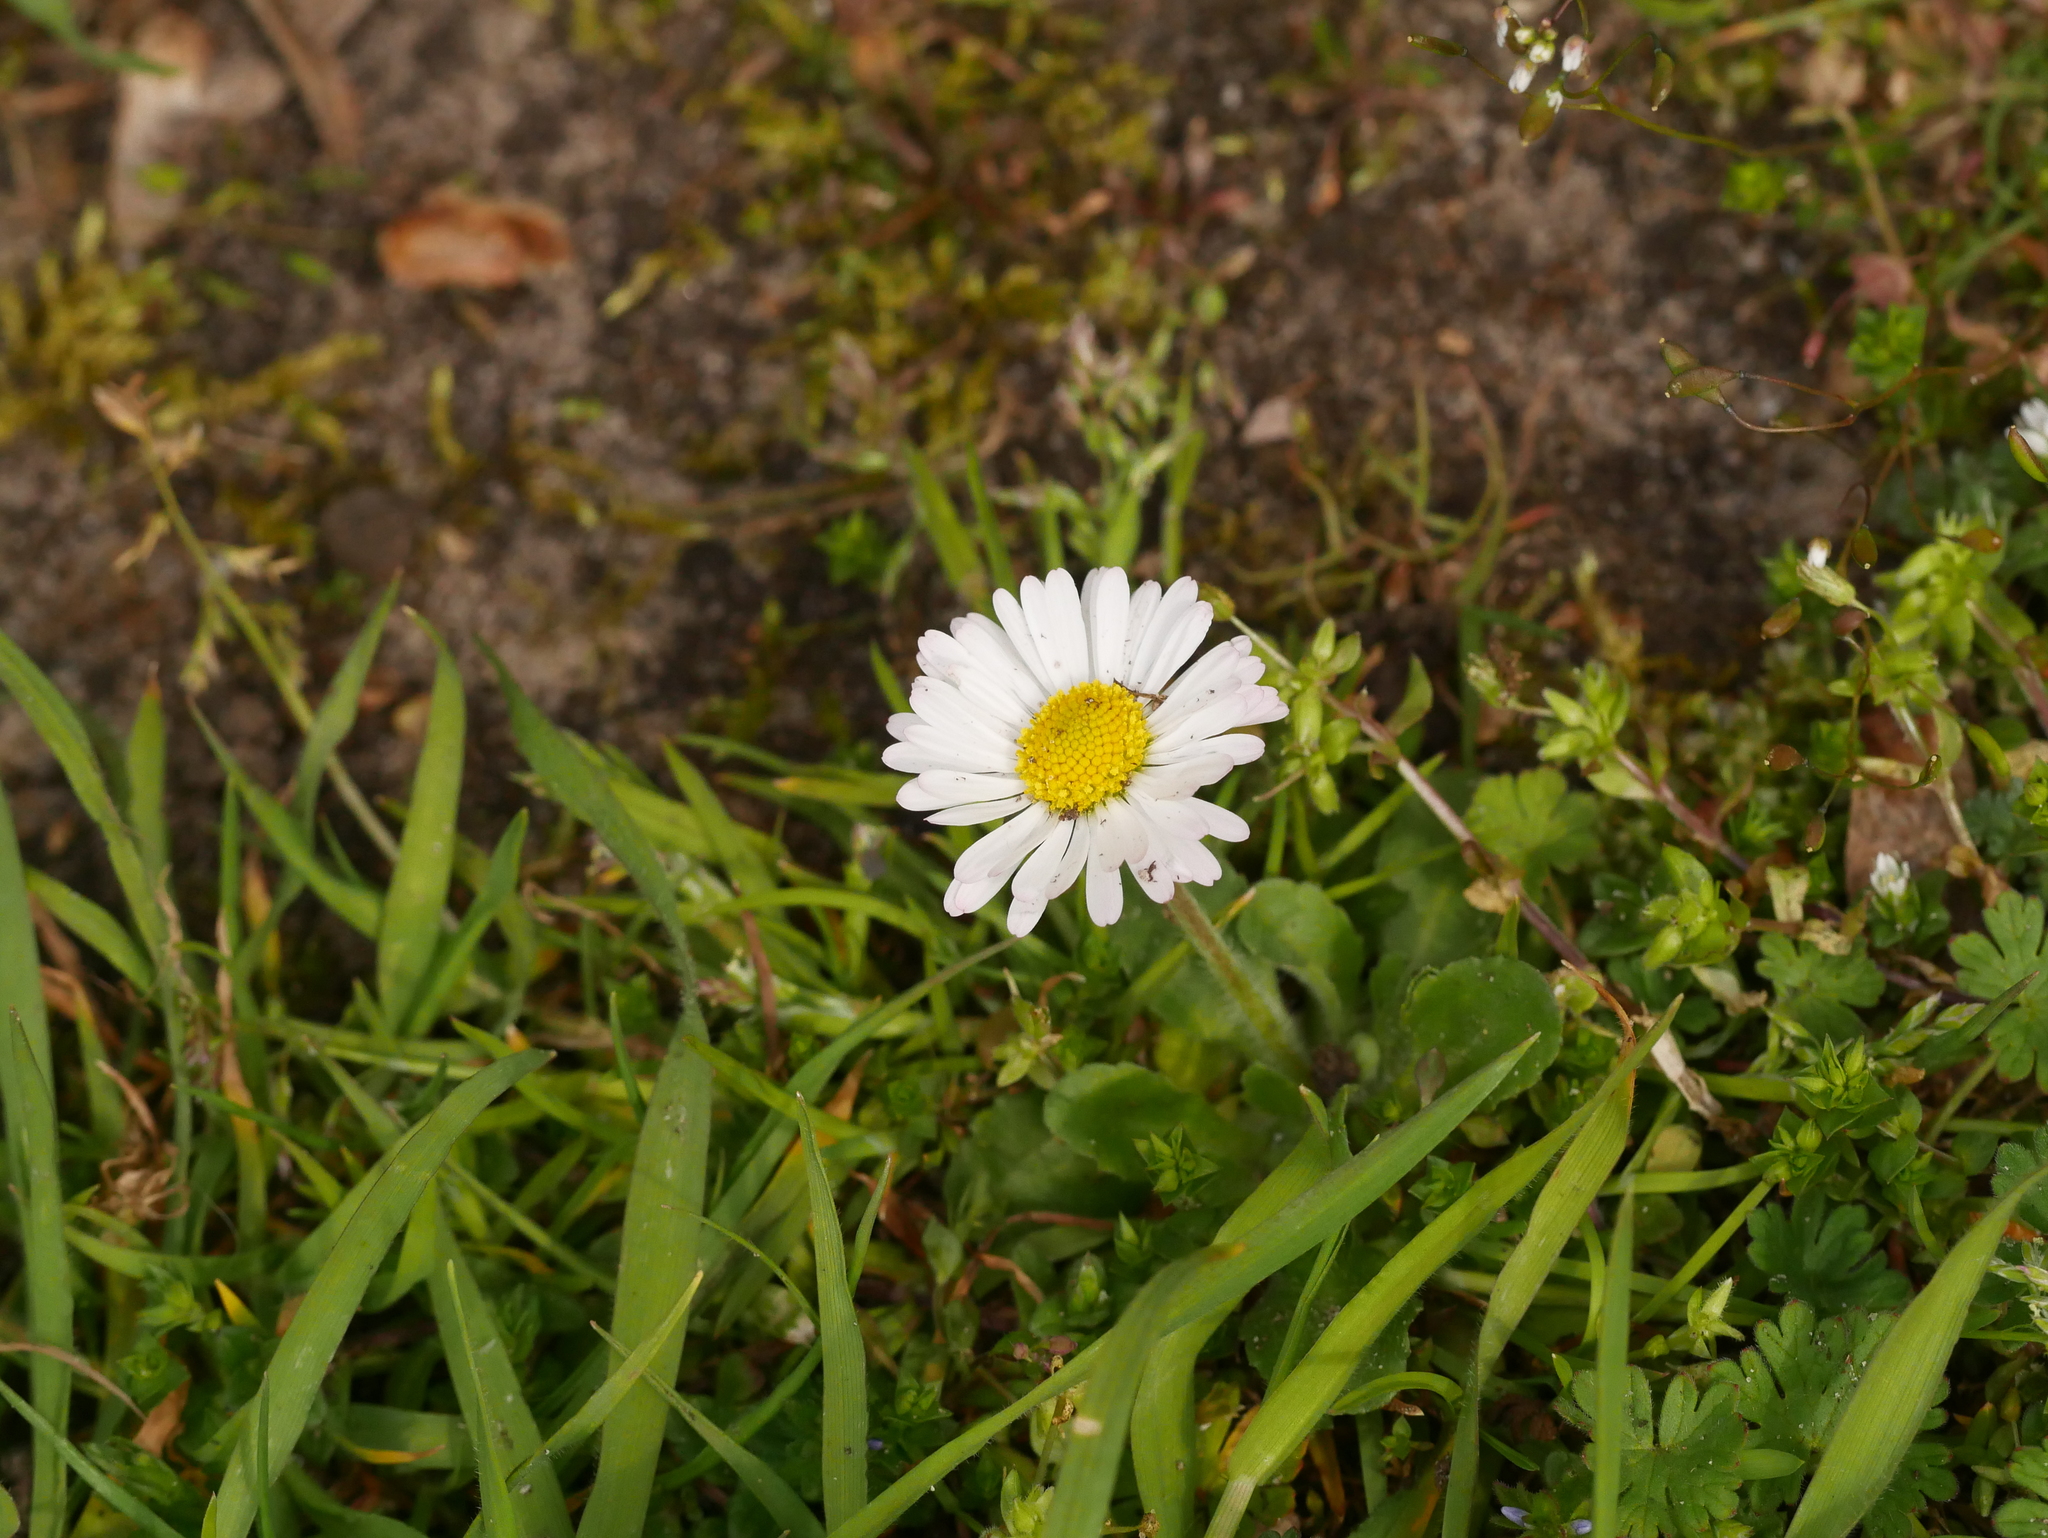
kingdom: Plantae
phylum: Tracheophyta
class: Magnoliopsida
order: Asterales
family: Asteraceae
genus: Bellis
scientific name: Bellis perennis
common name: Lawndaisy
